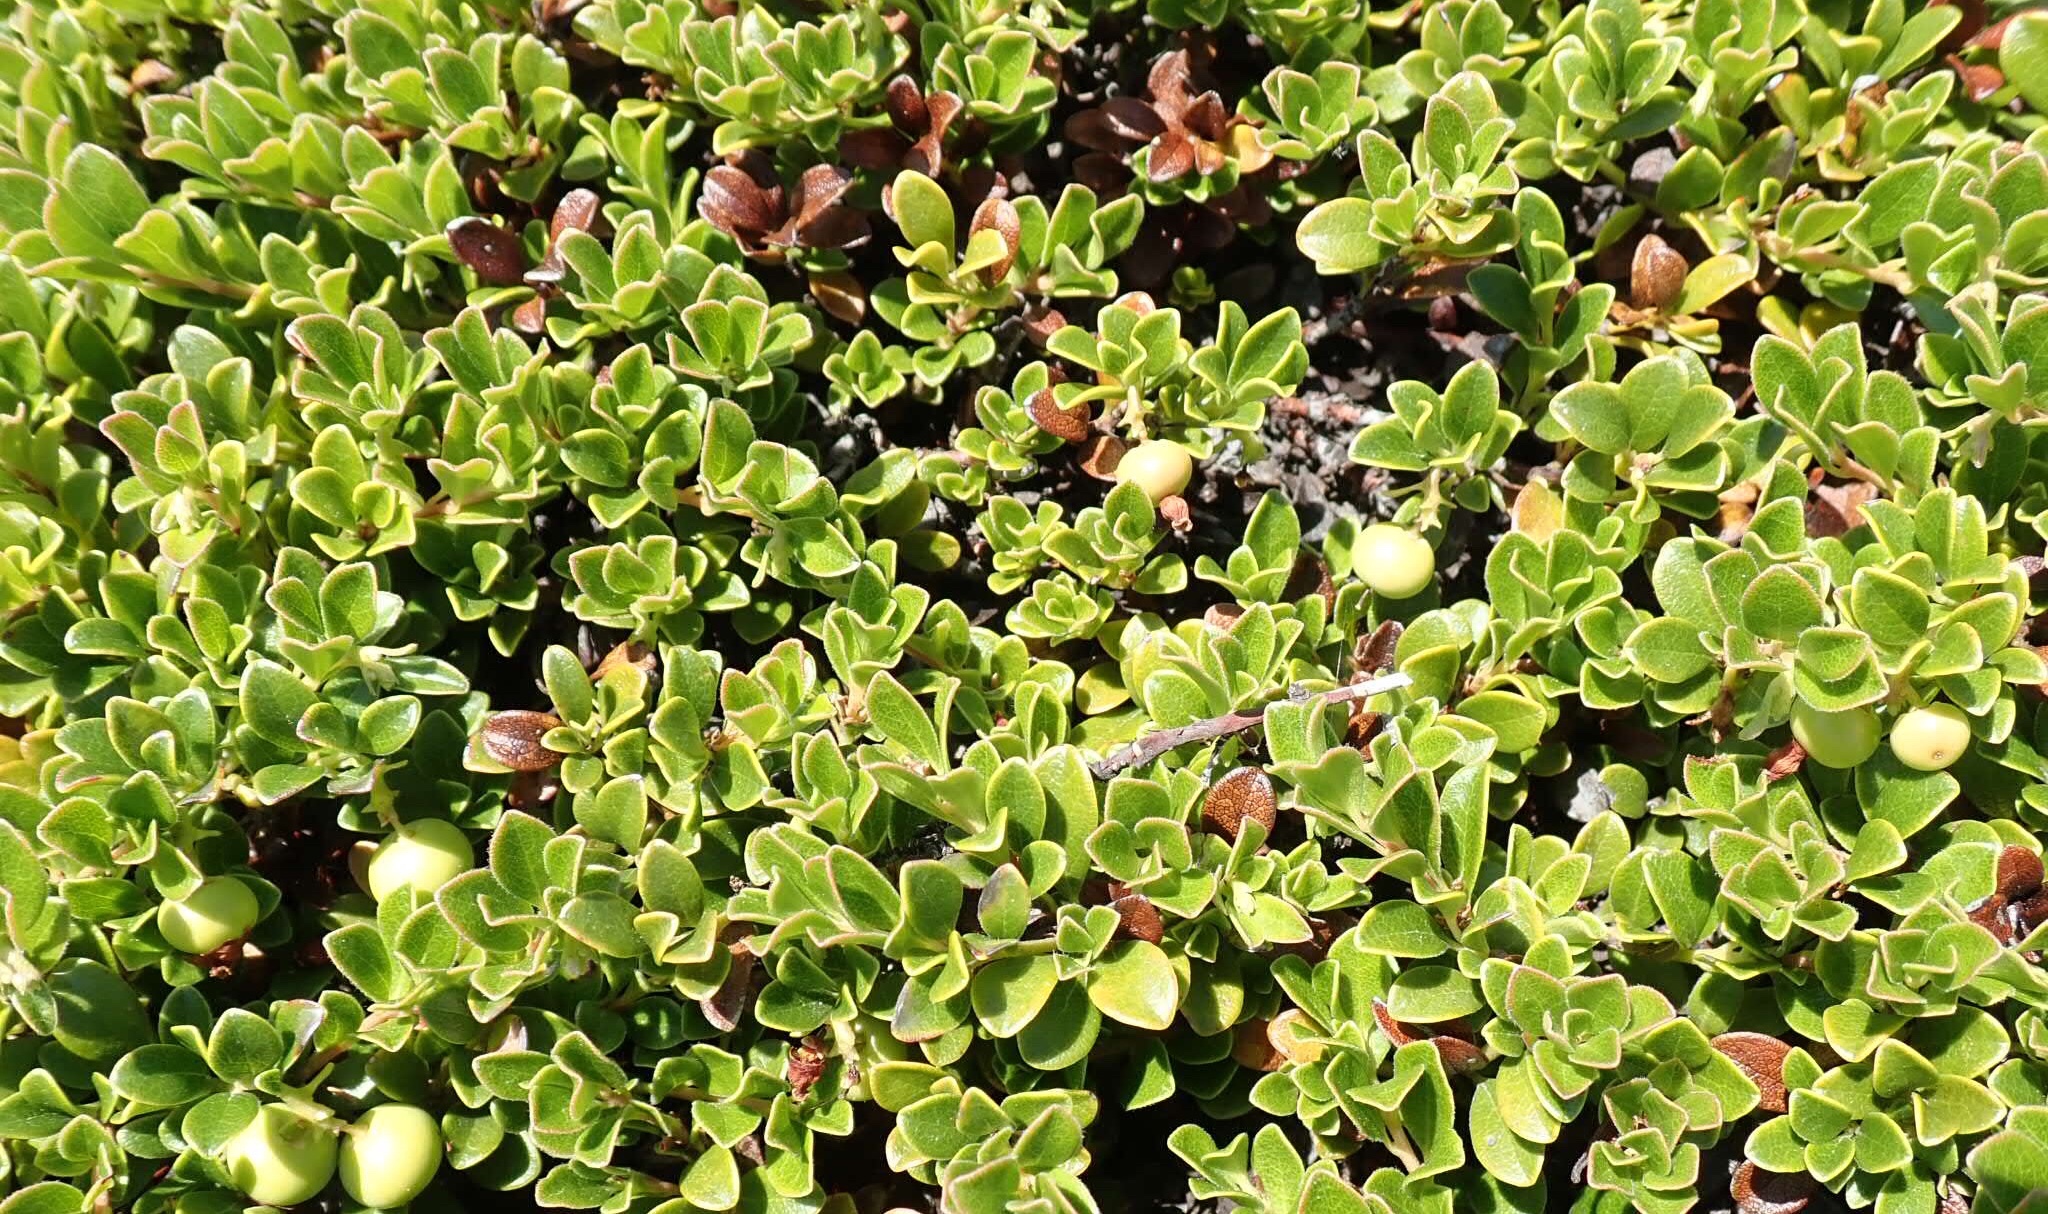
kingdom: Plantae
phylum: Tracheophyta
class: Magnoliopsida
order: Ericales
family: Ericaceae
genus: Arctostaphylos
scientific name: Arctostaphylos uva-ursi
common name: Bearberry
